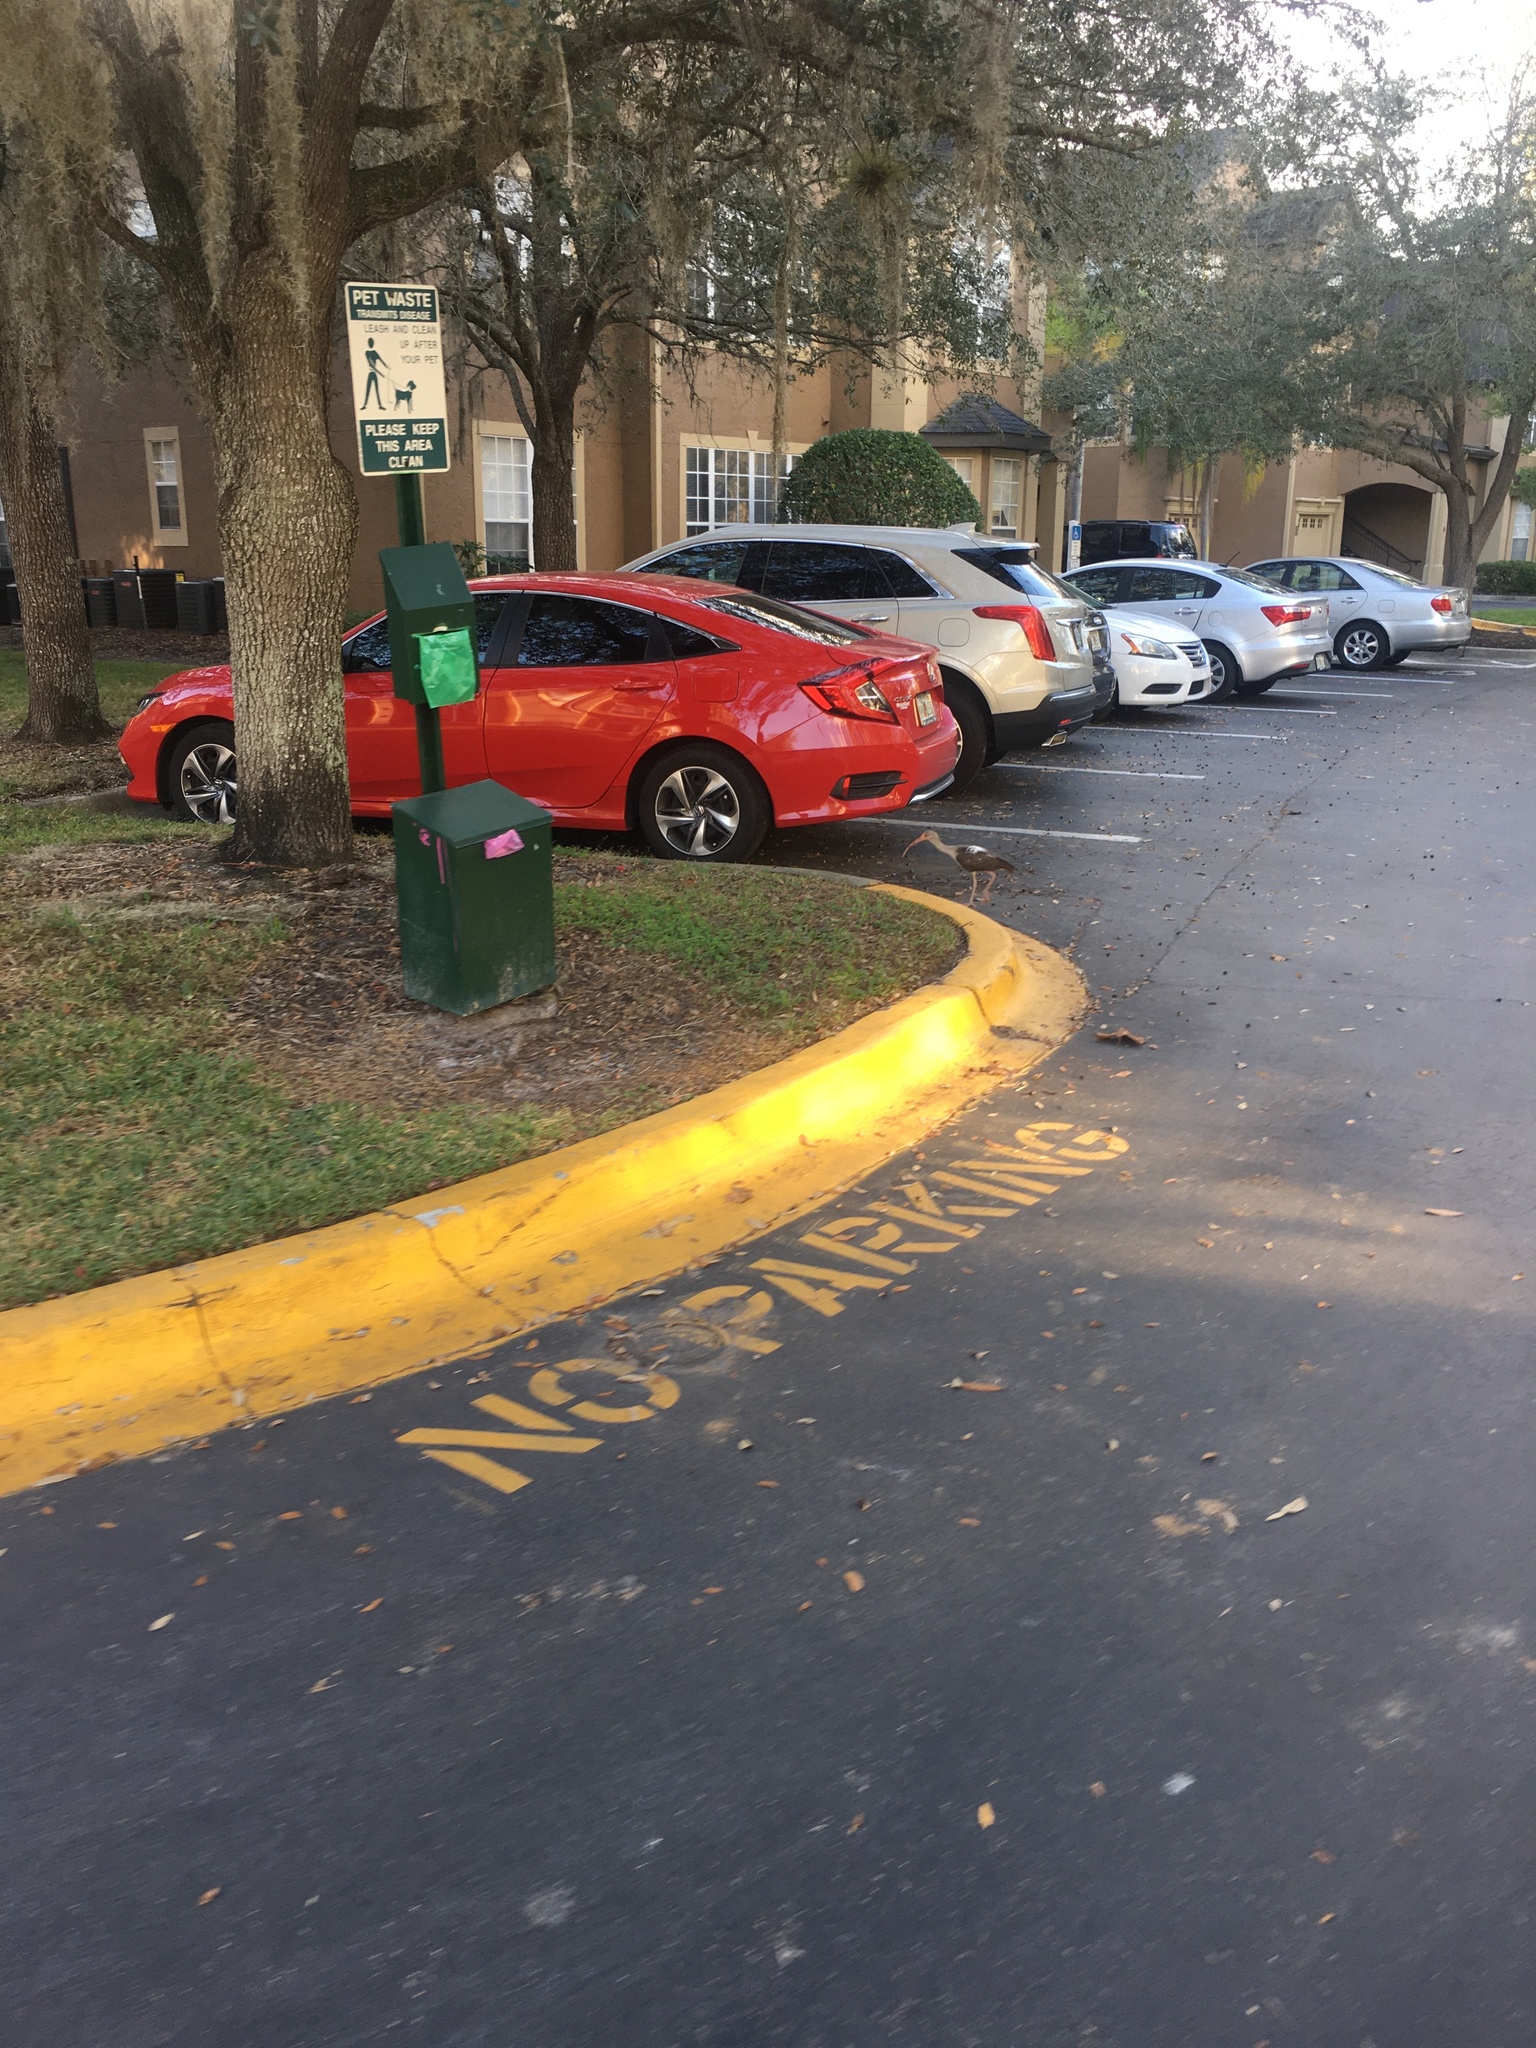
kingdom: Animalia
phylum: Chordata
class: Aves
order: Pelecaniformes
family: Threskiornithidae
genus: Eudocimus
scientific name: Eudocimus albus
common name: White ibis
